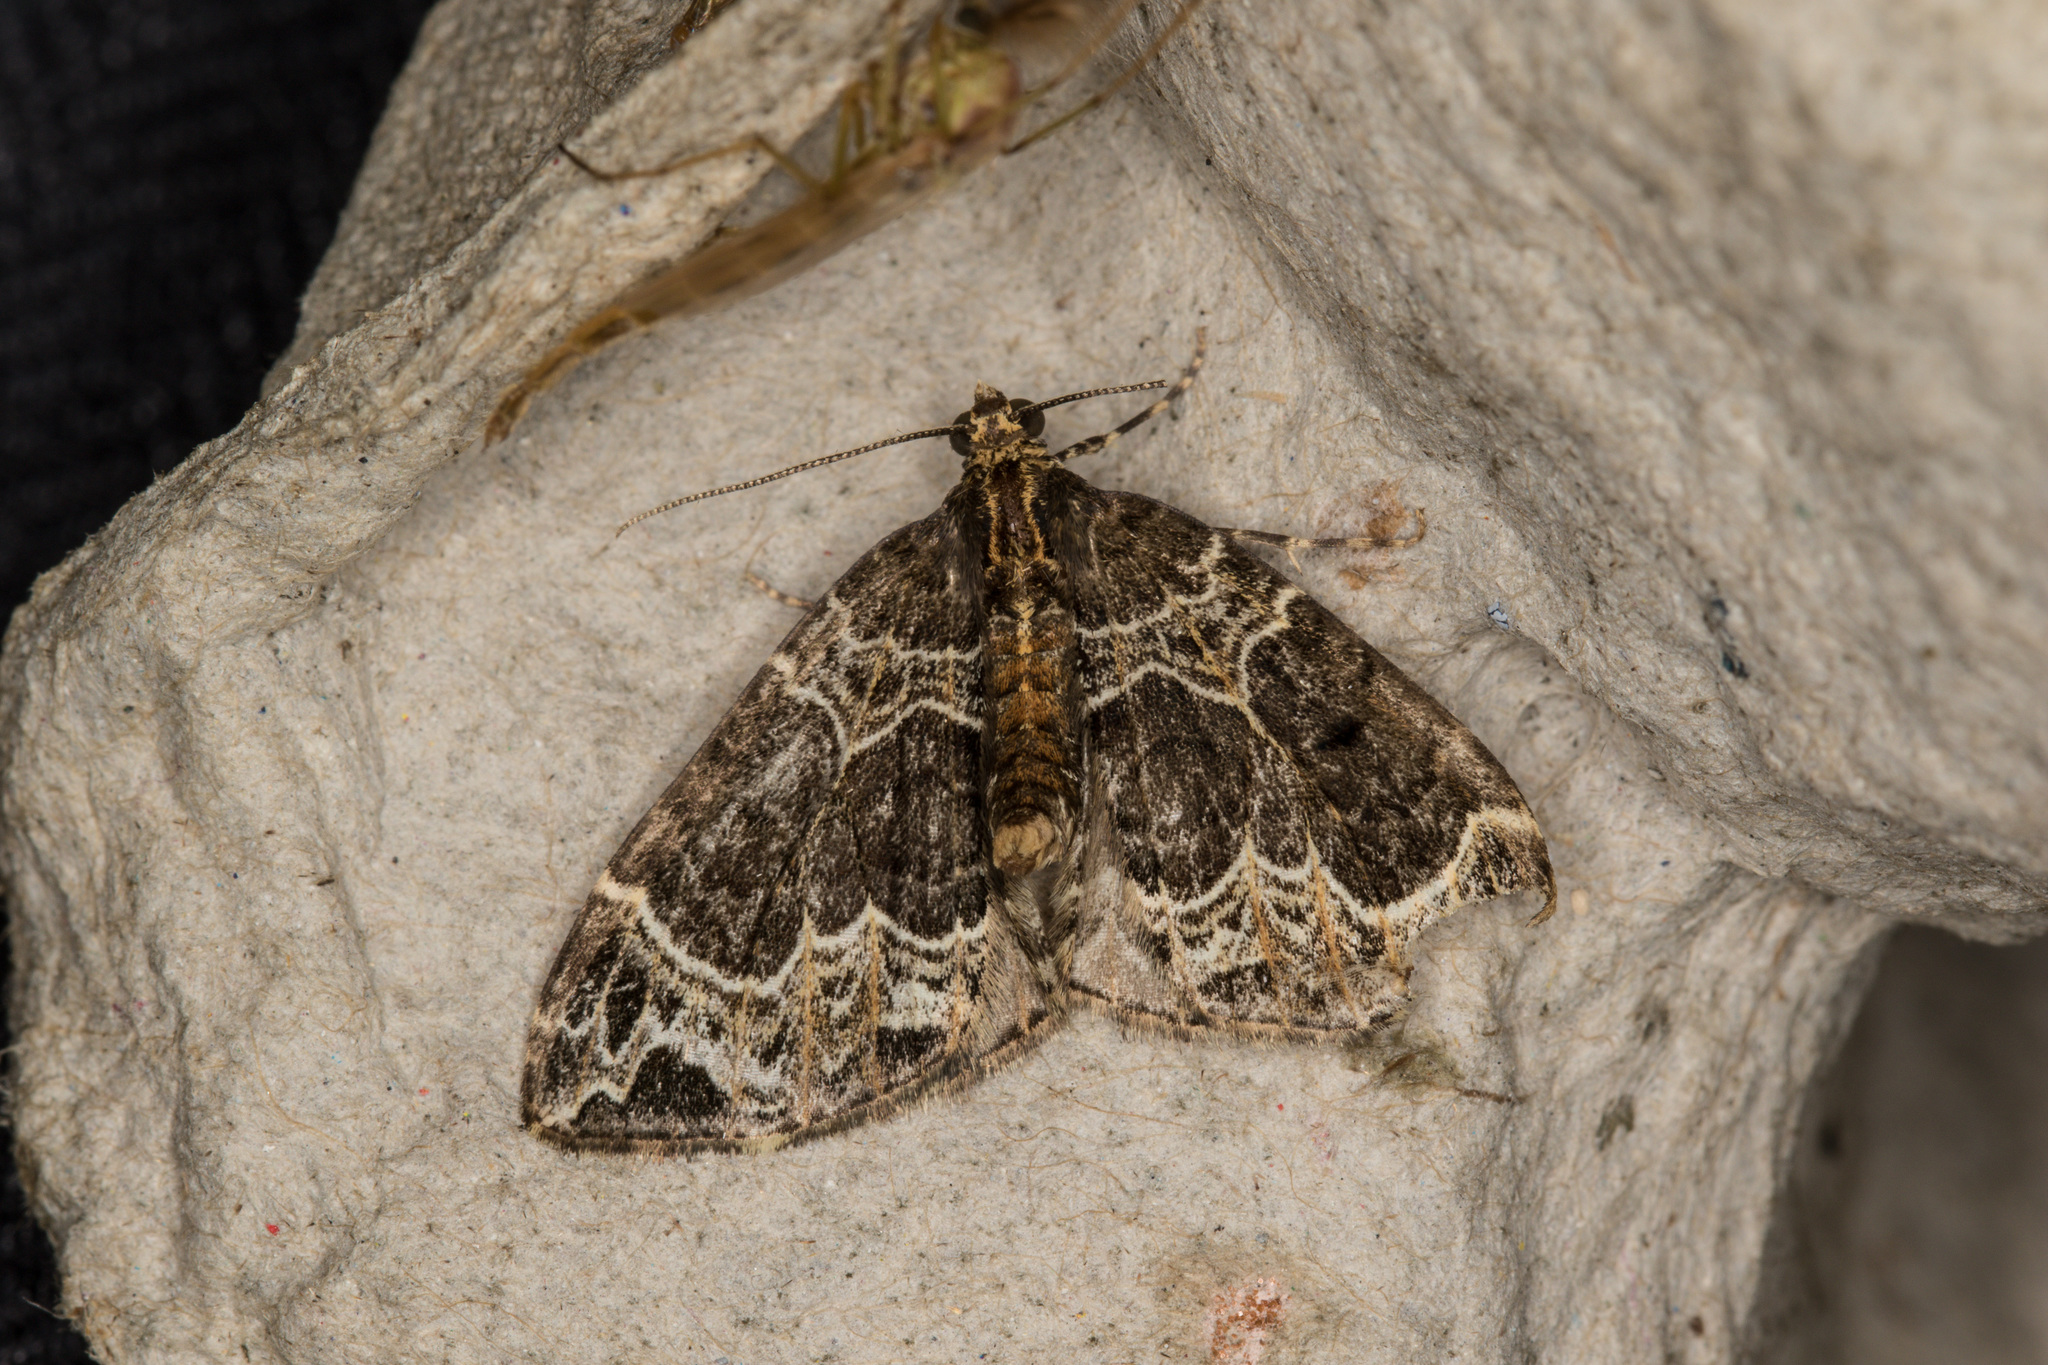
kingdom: Animalia
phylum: Arthropoda
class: Insecta
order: Lepidoptera
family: Geometridae
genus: Ecliptopera
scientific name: Ecliptopera silaceata
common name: Small phoenix
